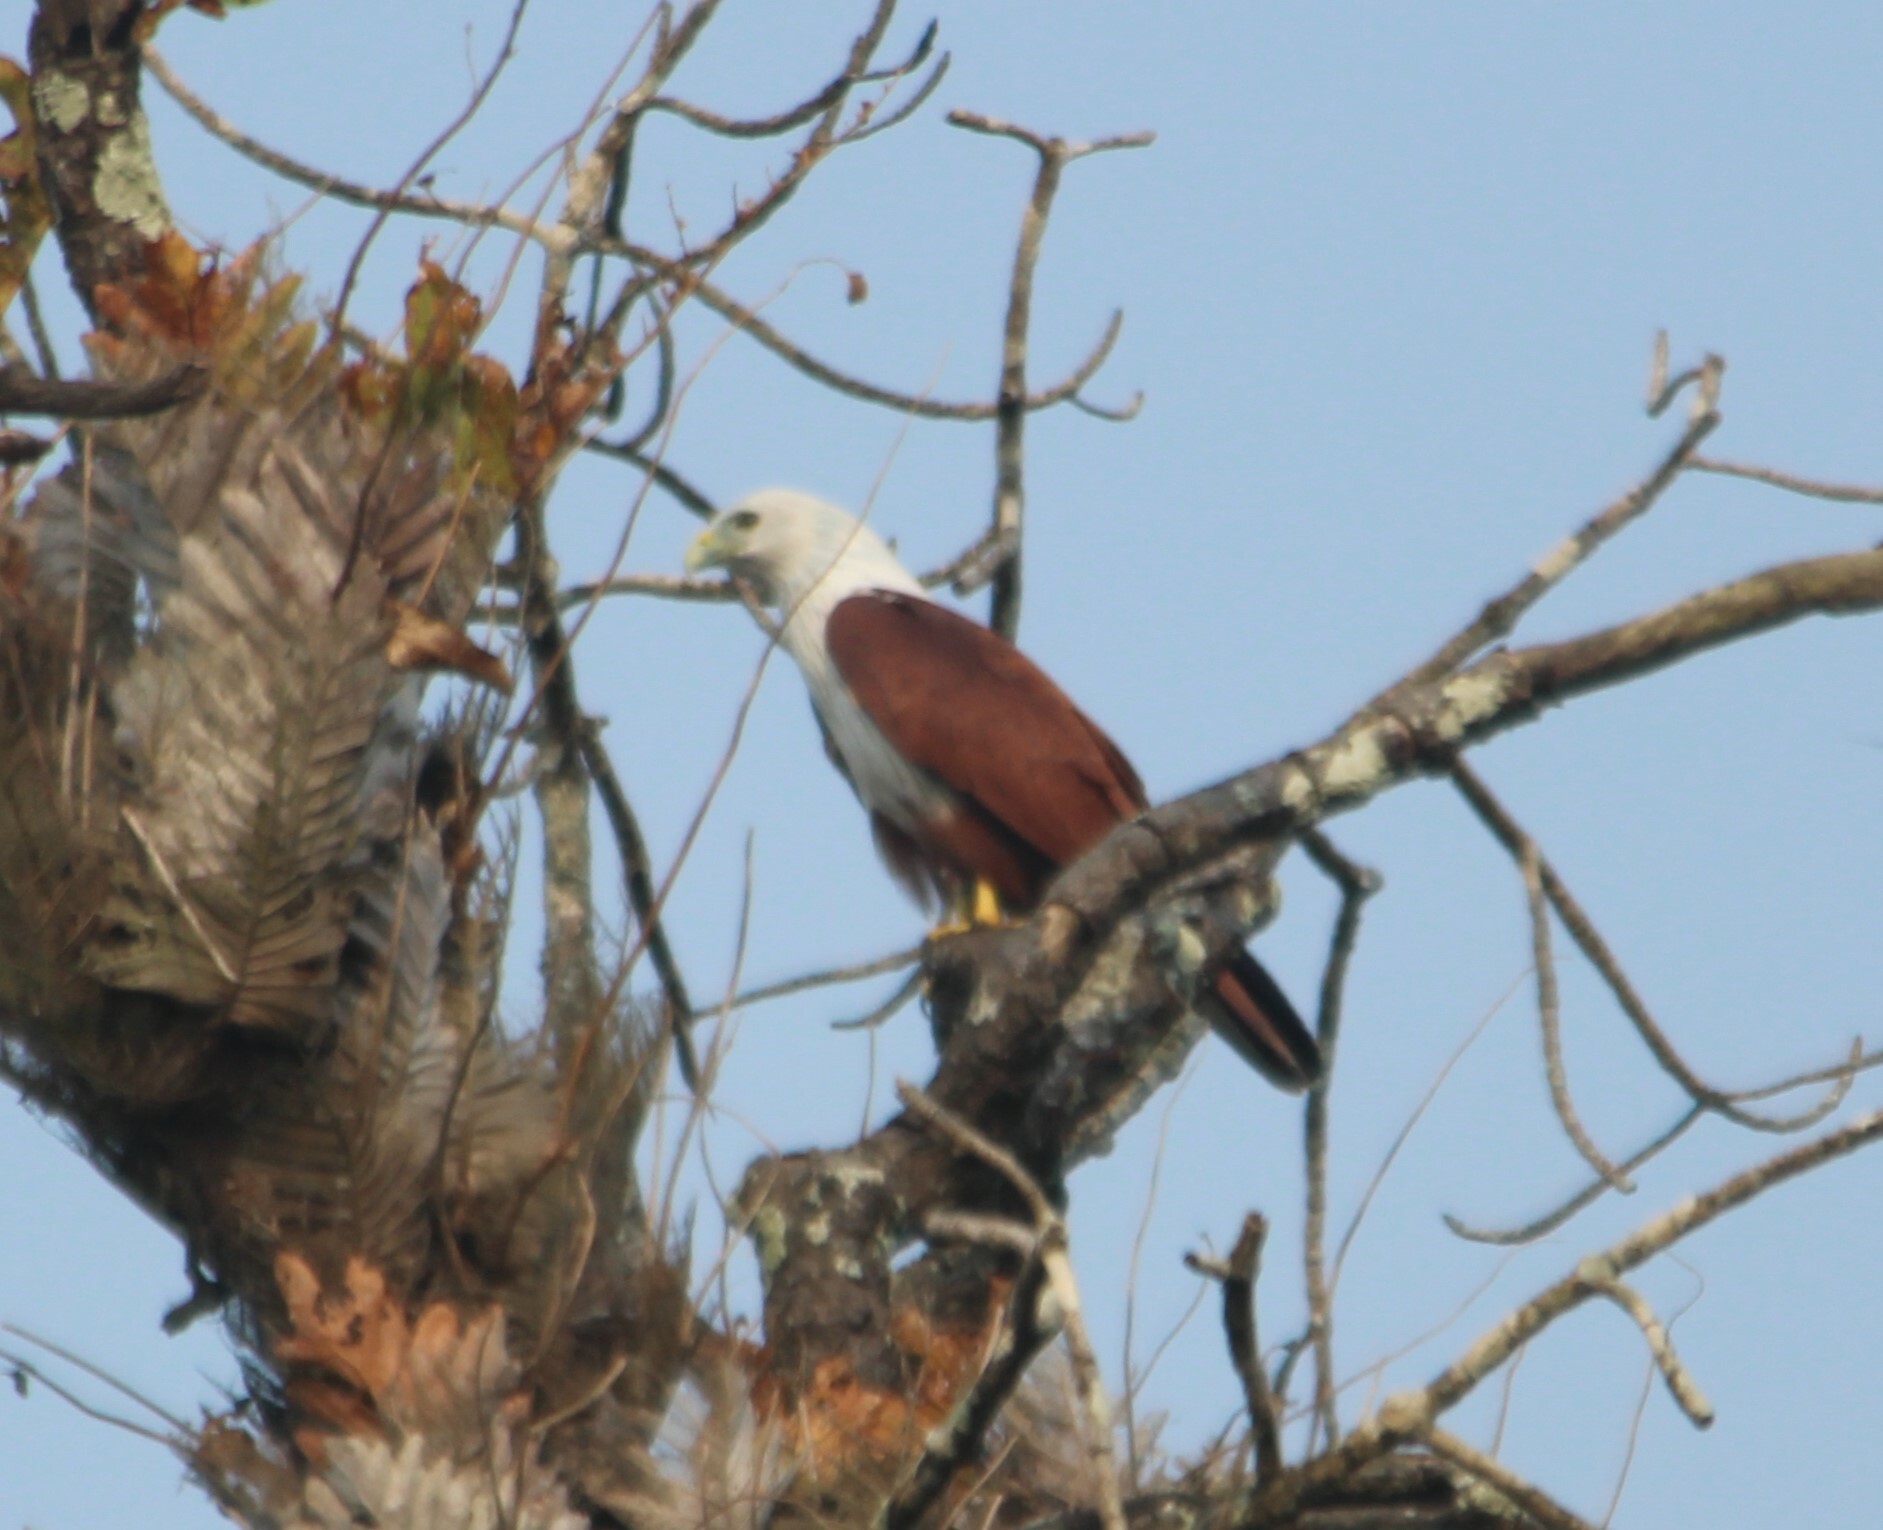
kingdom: Animalia
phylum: Chordata
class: Aves
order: Accipitriformes
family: Accipitridae
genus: Haliastur
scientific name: Haliastur indus
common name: Brahminy kite
